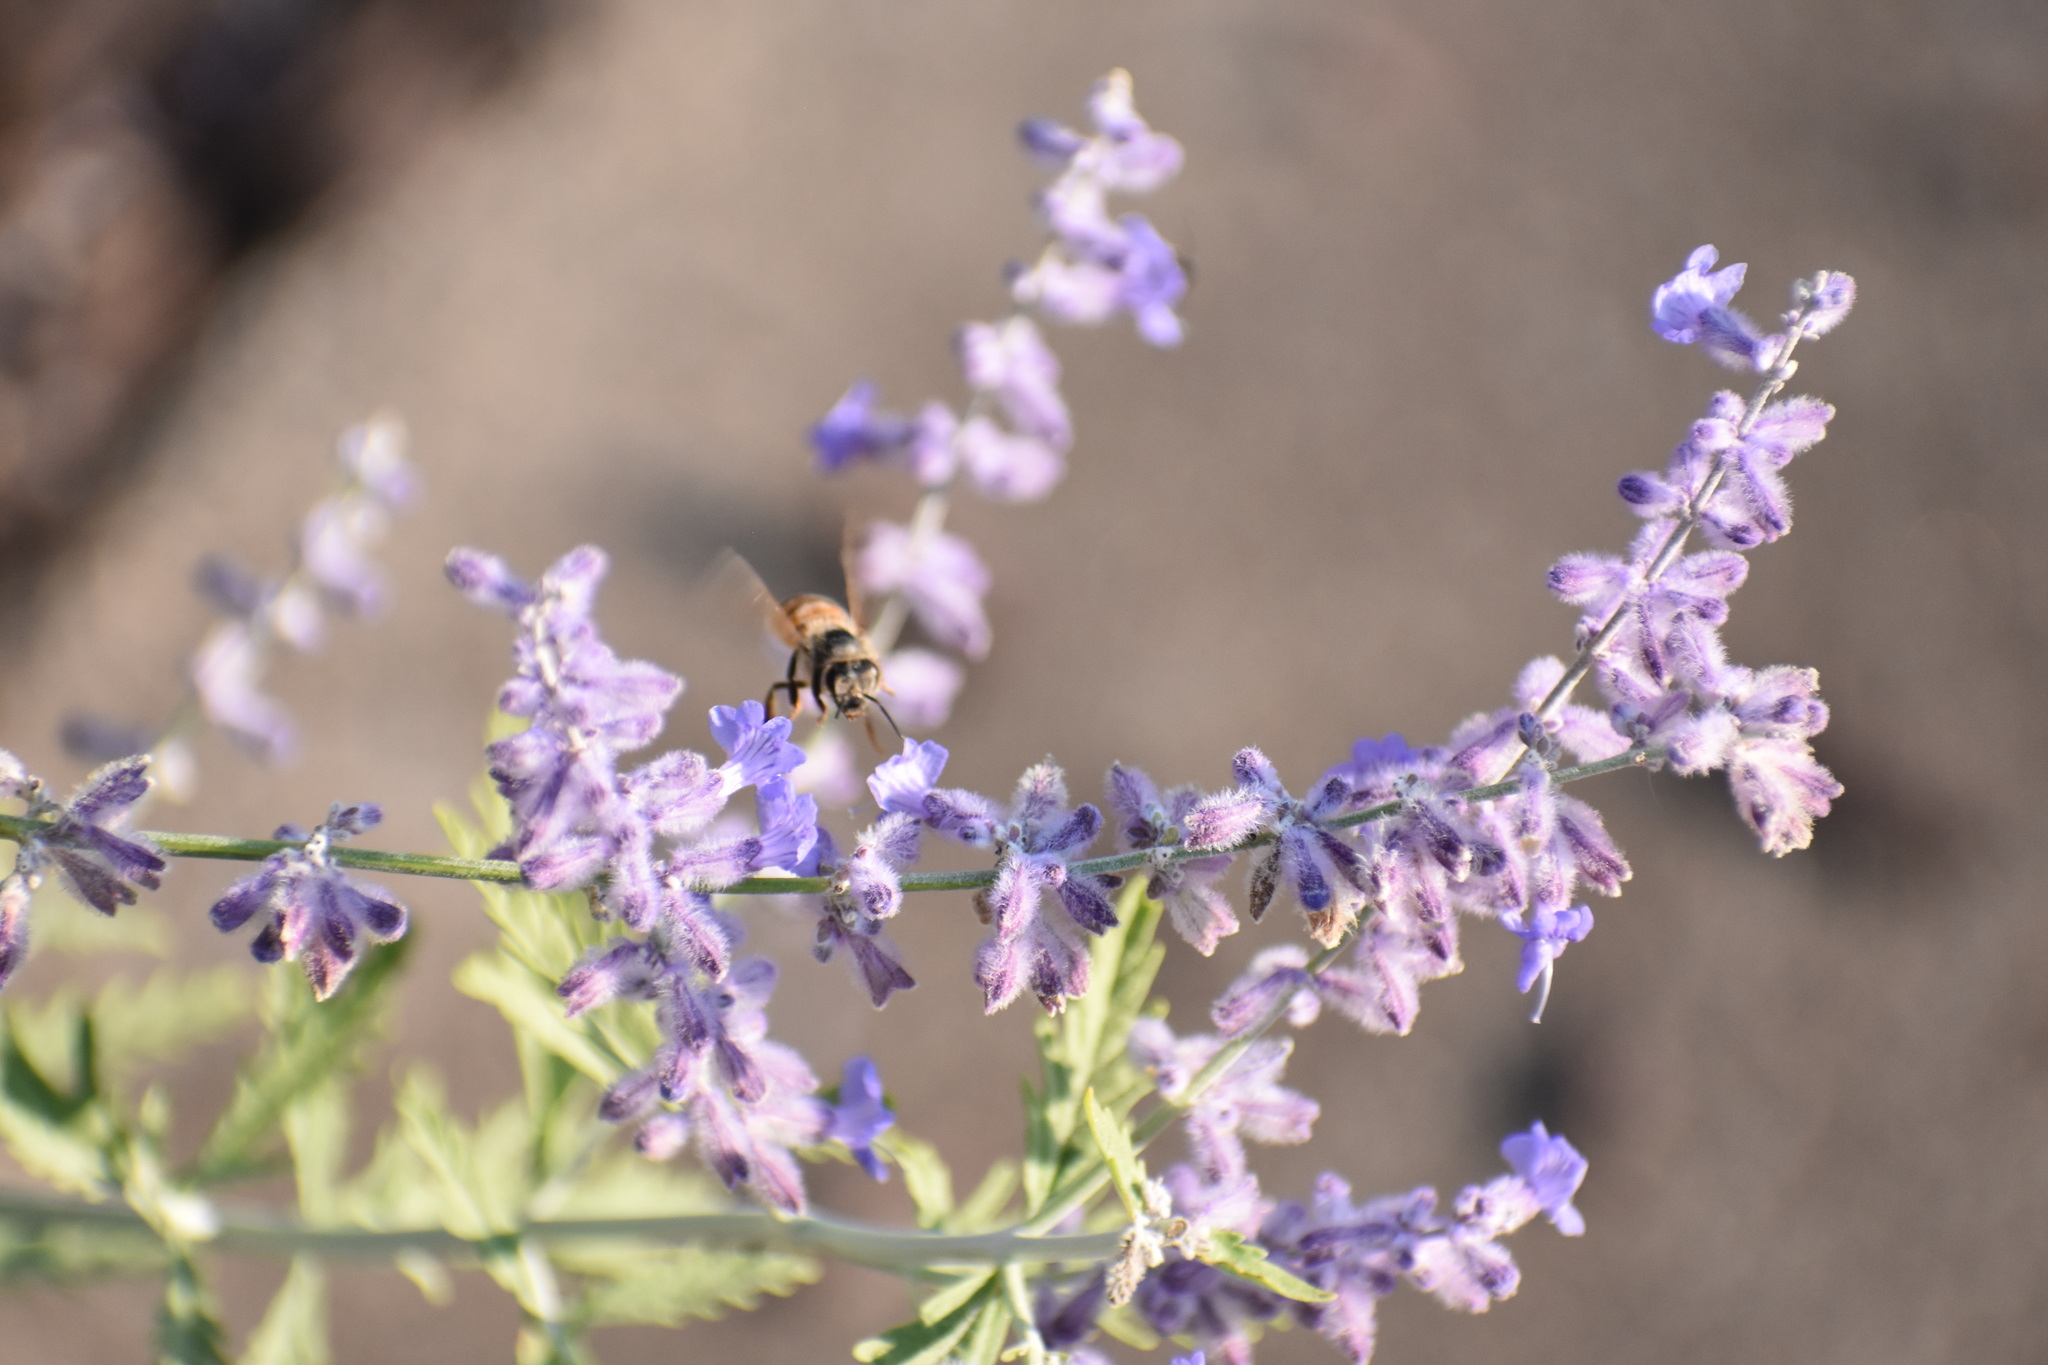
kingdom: Animalia
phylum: Arthropoda
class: Insecta
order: Hymenoptera
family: Apidae
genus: Apis
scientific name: Apis mellifera
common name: Honey bee
